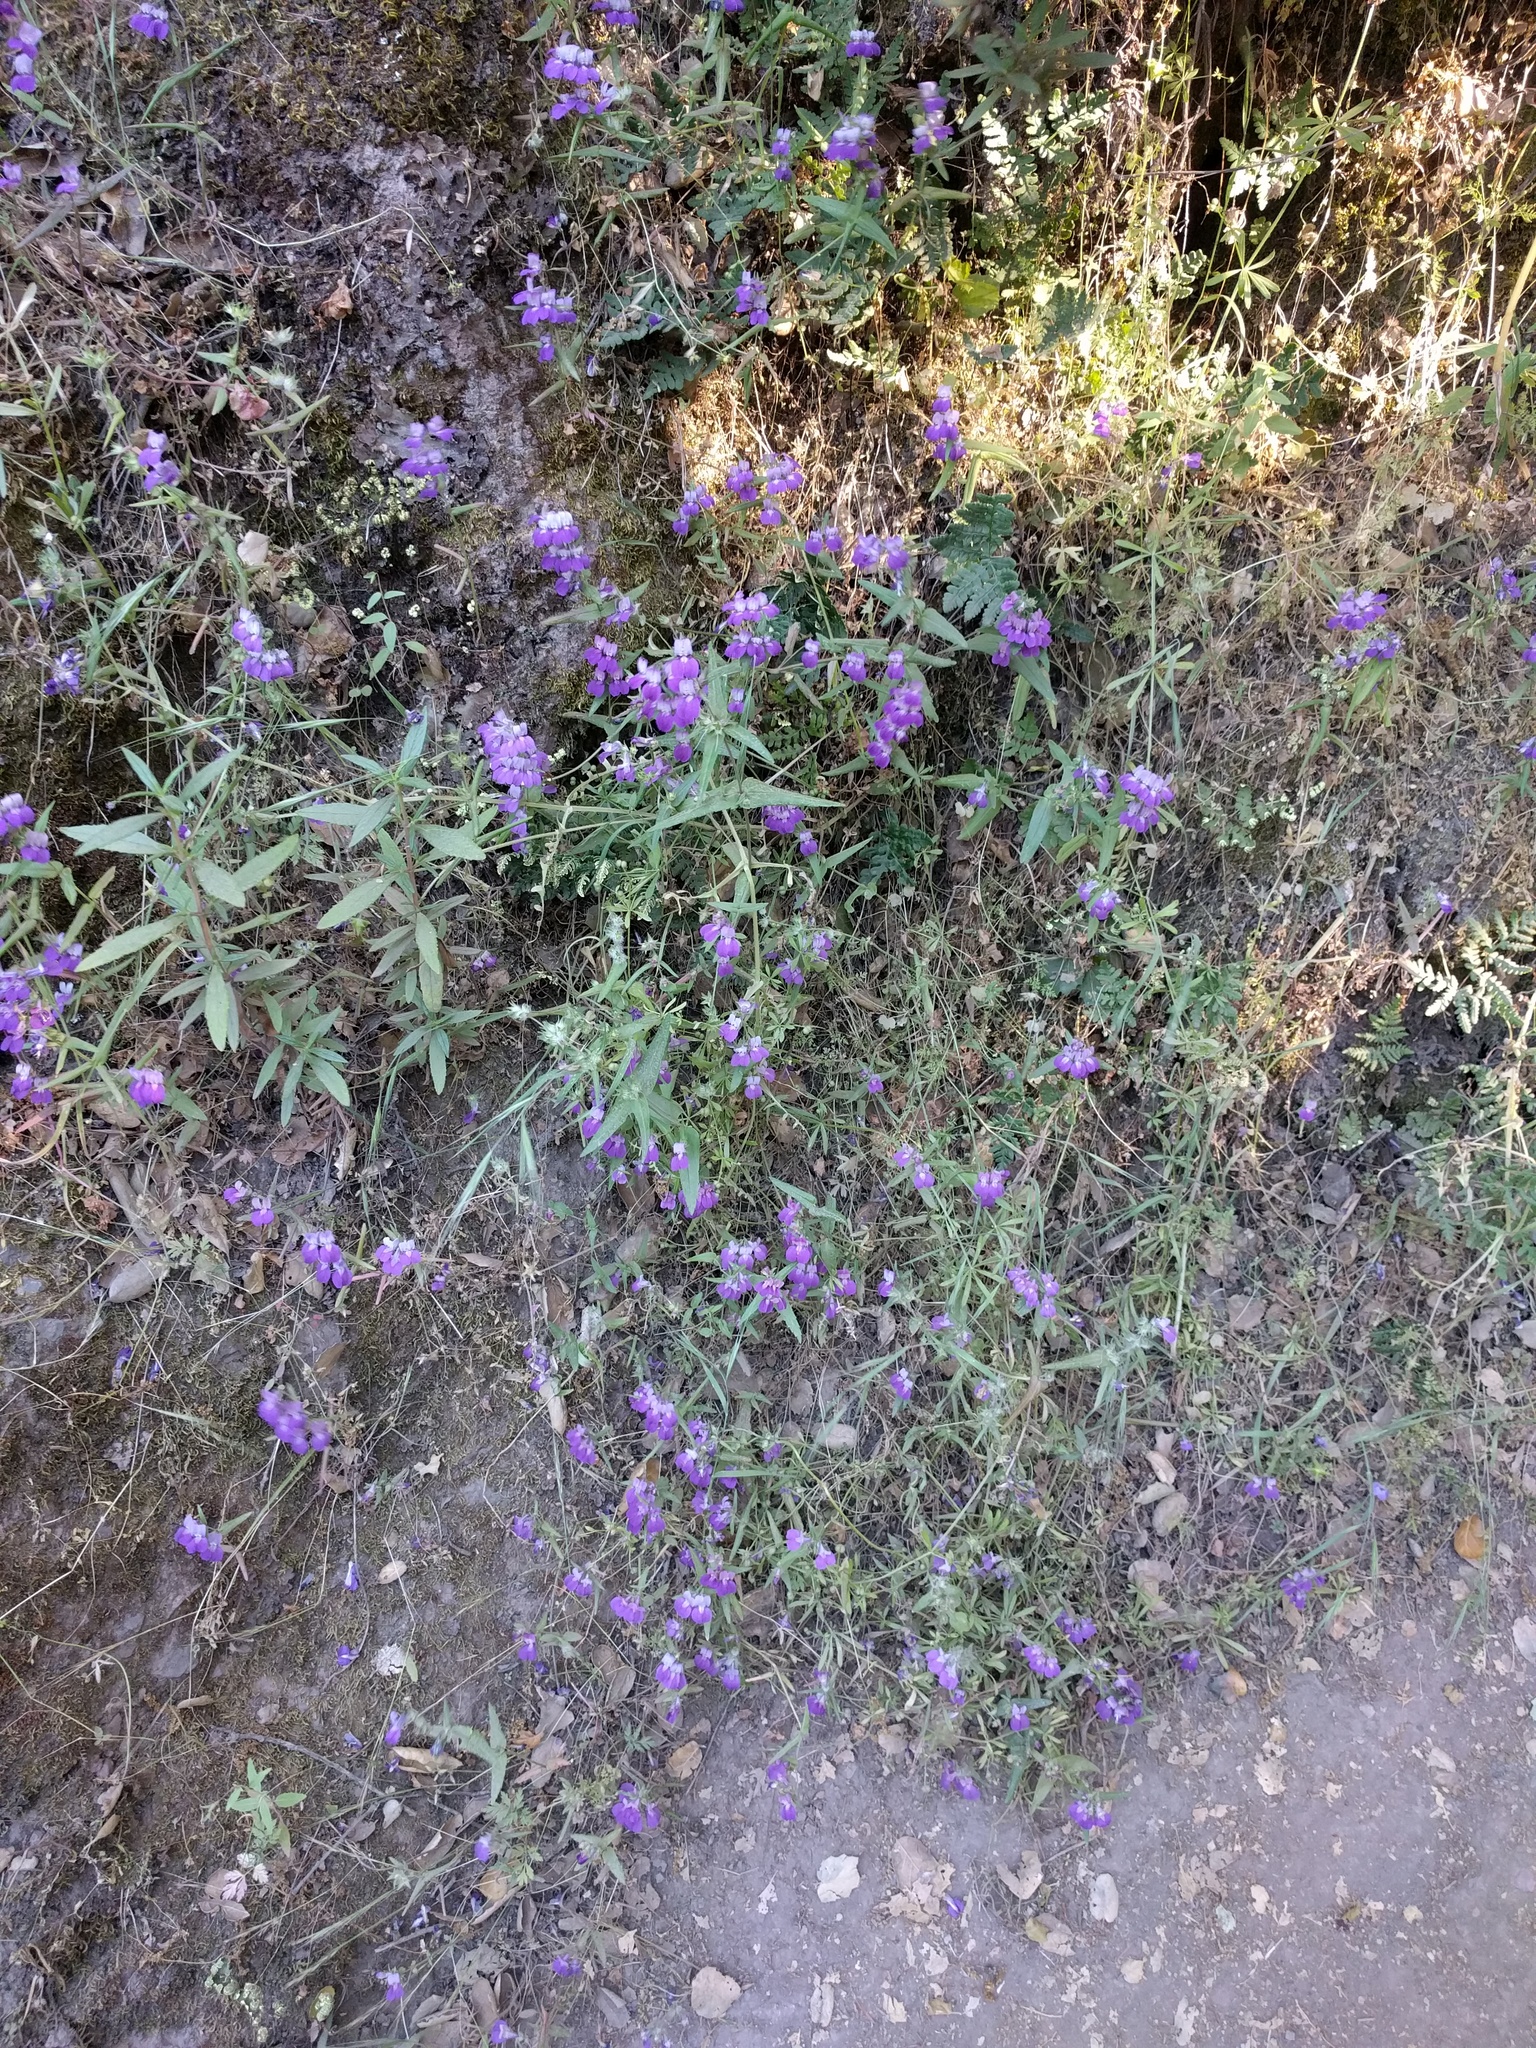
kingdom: Plantae
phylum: Tracheophyta
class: Magnoliopsida
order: Lamiales
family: Plantaginaceae
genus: Collinsia
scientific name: Collinsia heterophylla
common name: Chinese-houses
